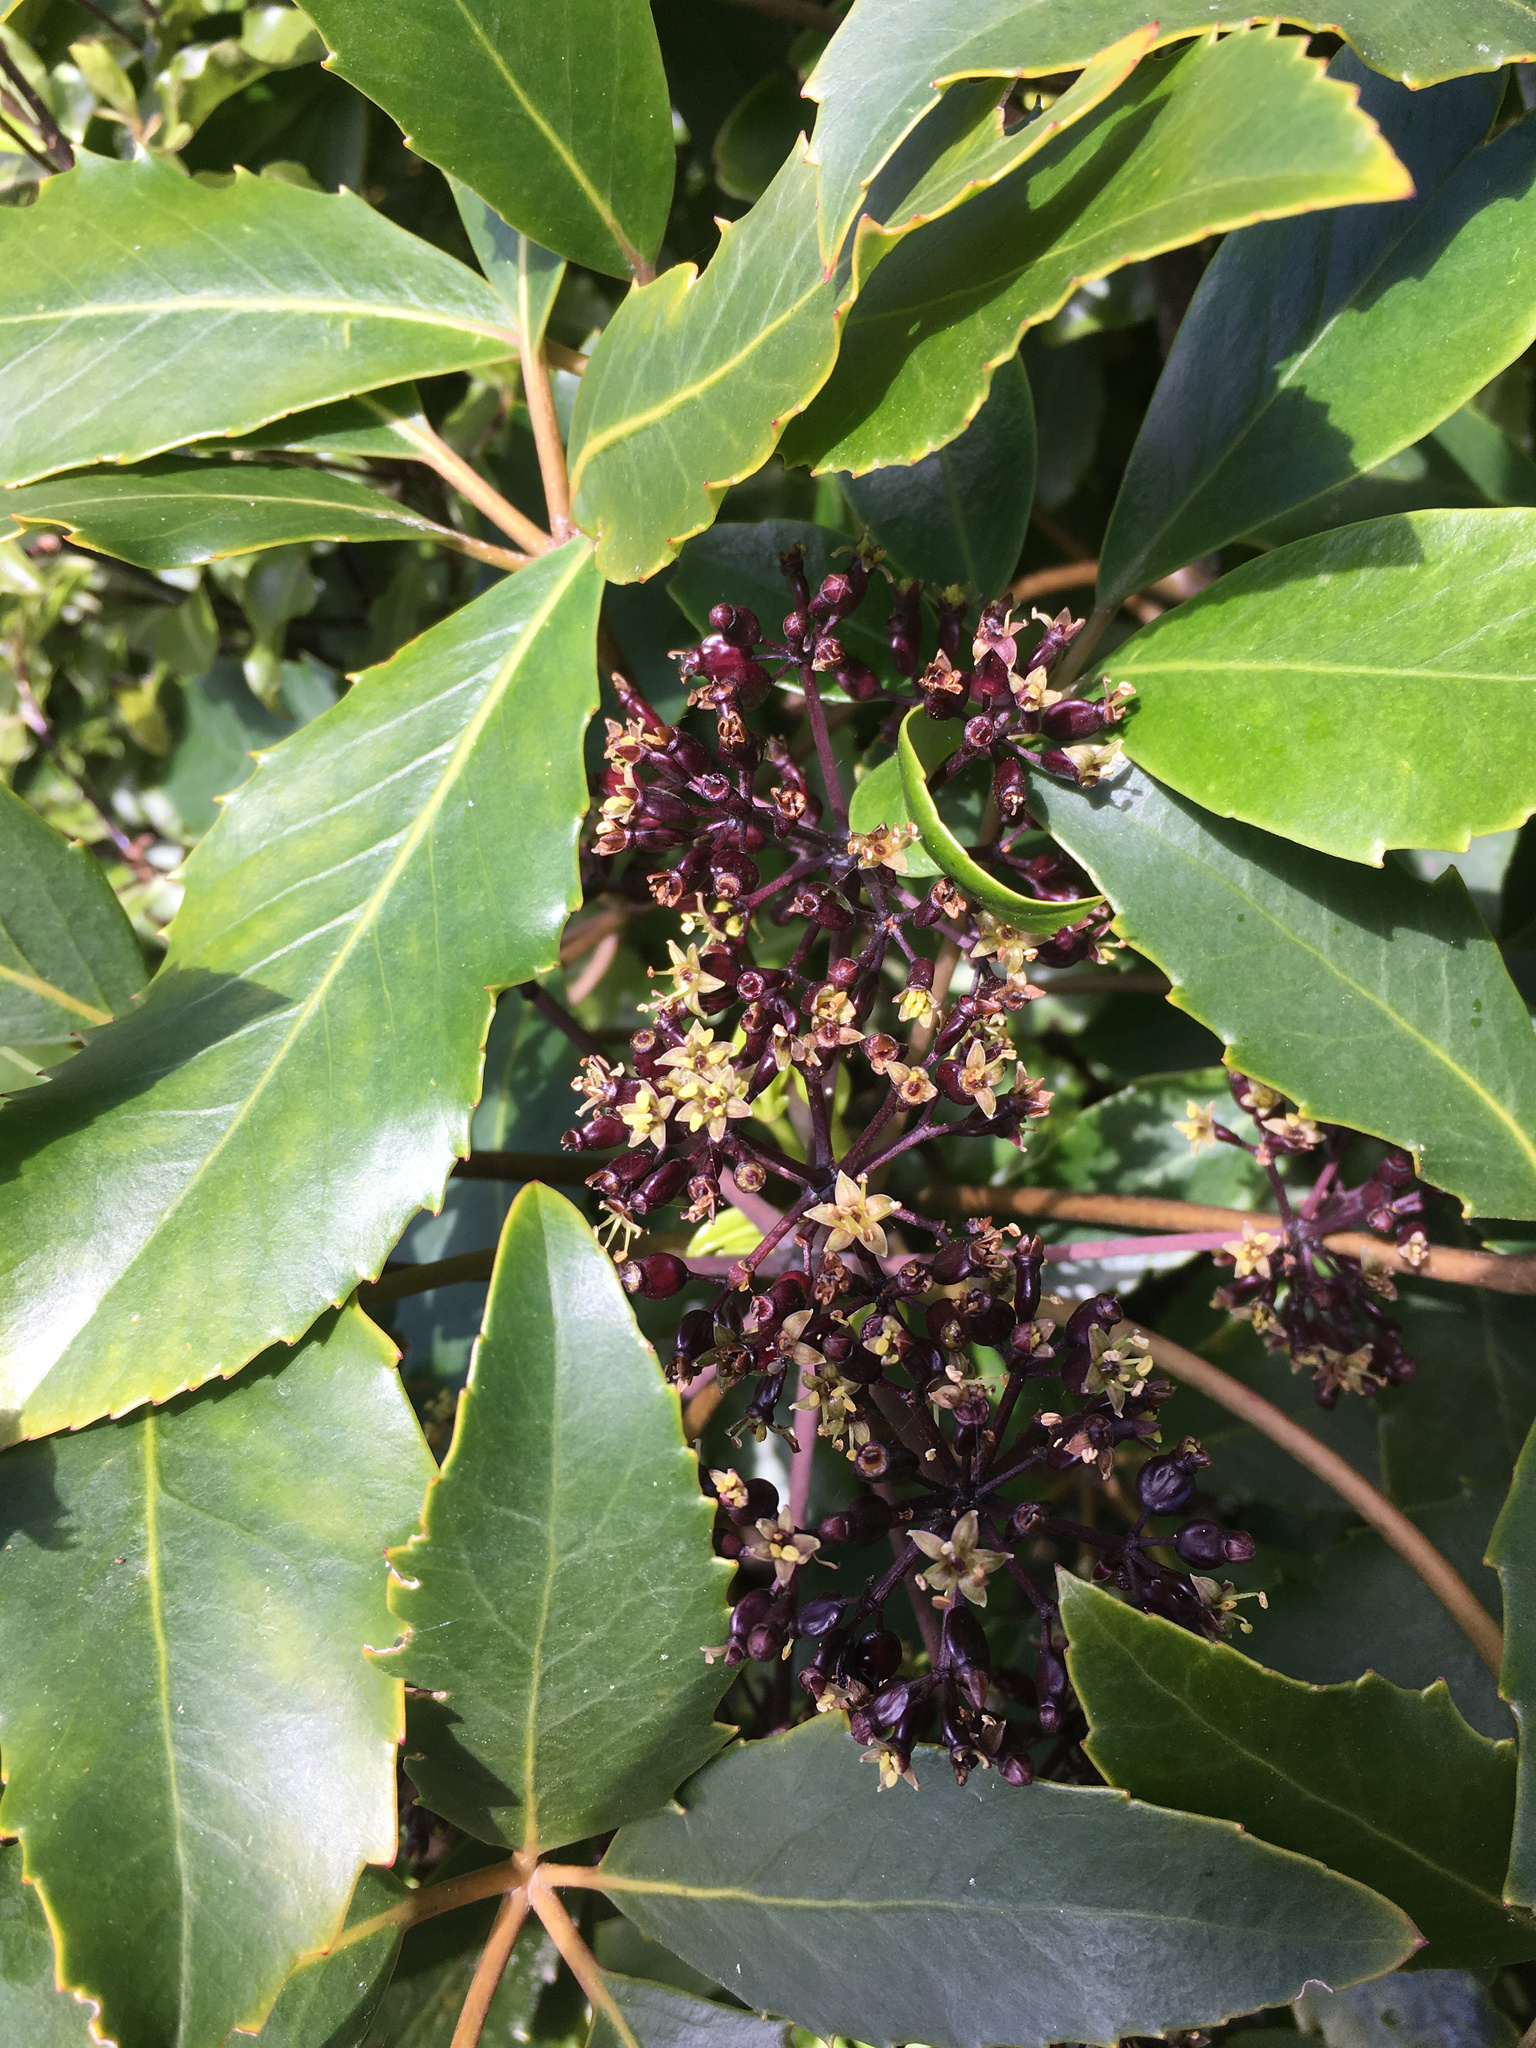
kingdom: Plantae
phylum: Tracheophyta
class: Magnoliopsida
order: Apiales
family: Araliaceae
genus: Neopanax
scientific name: Neopanax arboreus
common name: Five-fingers
